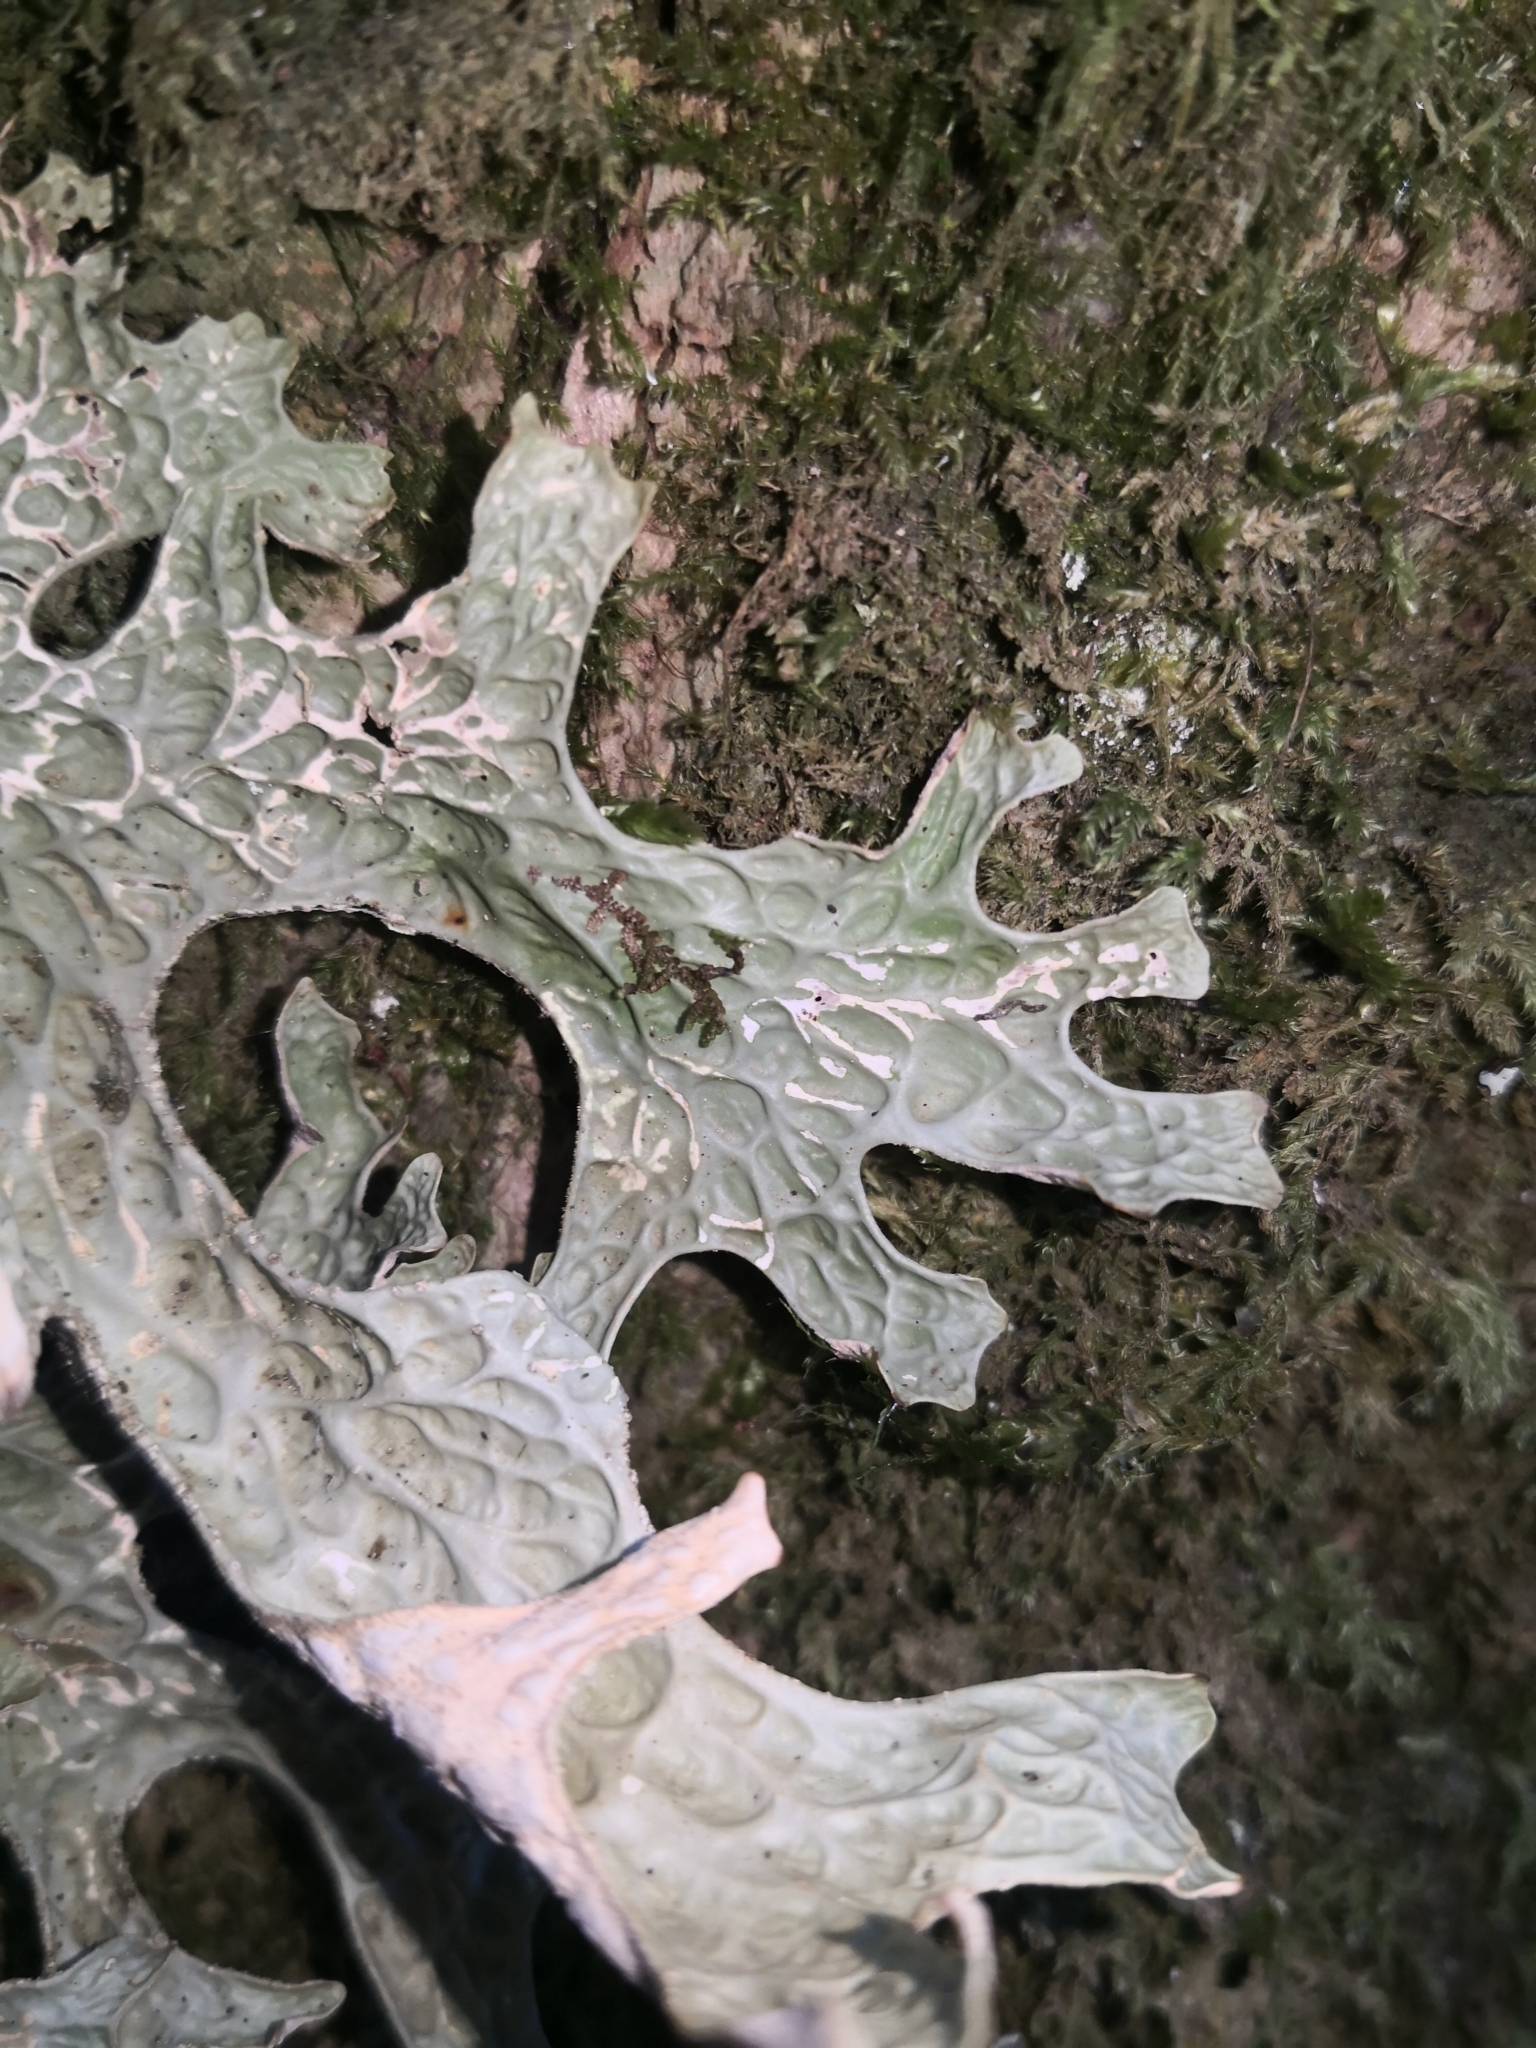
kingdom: Fungi
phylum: Ascomycota
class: Lecanoromycetes
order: Peltigerales
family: Lobariaceae
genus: Lobaria
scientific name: Lobaria pulmonaria
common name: Lungwort
